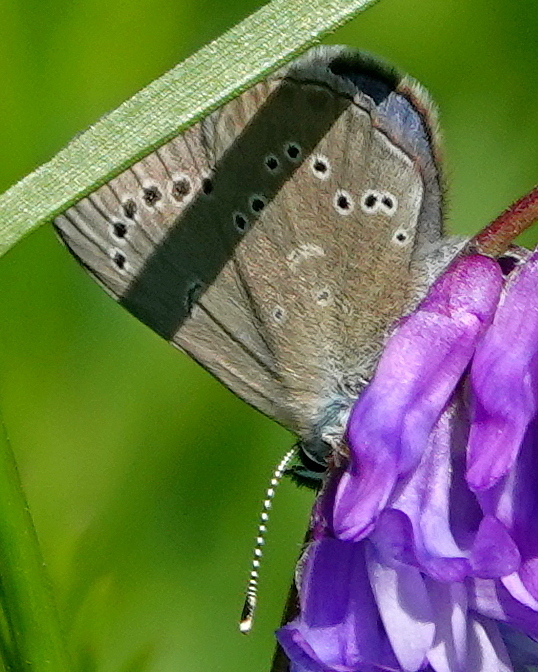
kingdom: Animalia
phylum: Arthropoda
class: Insecta
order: Lepidoptera
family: Lycaenidae
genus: Glaucopsyche
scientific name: Glaucopsyche lygdamus
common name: Silvery blue
